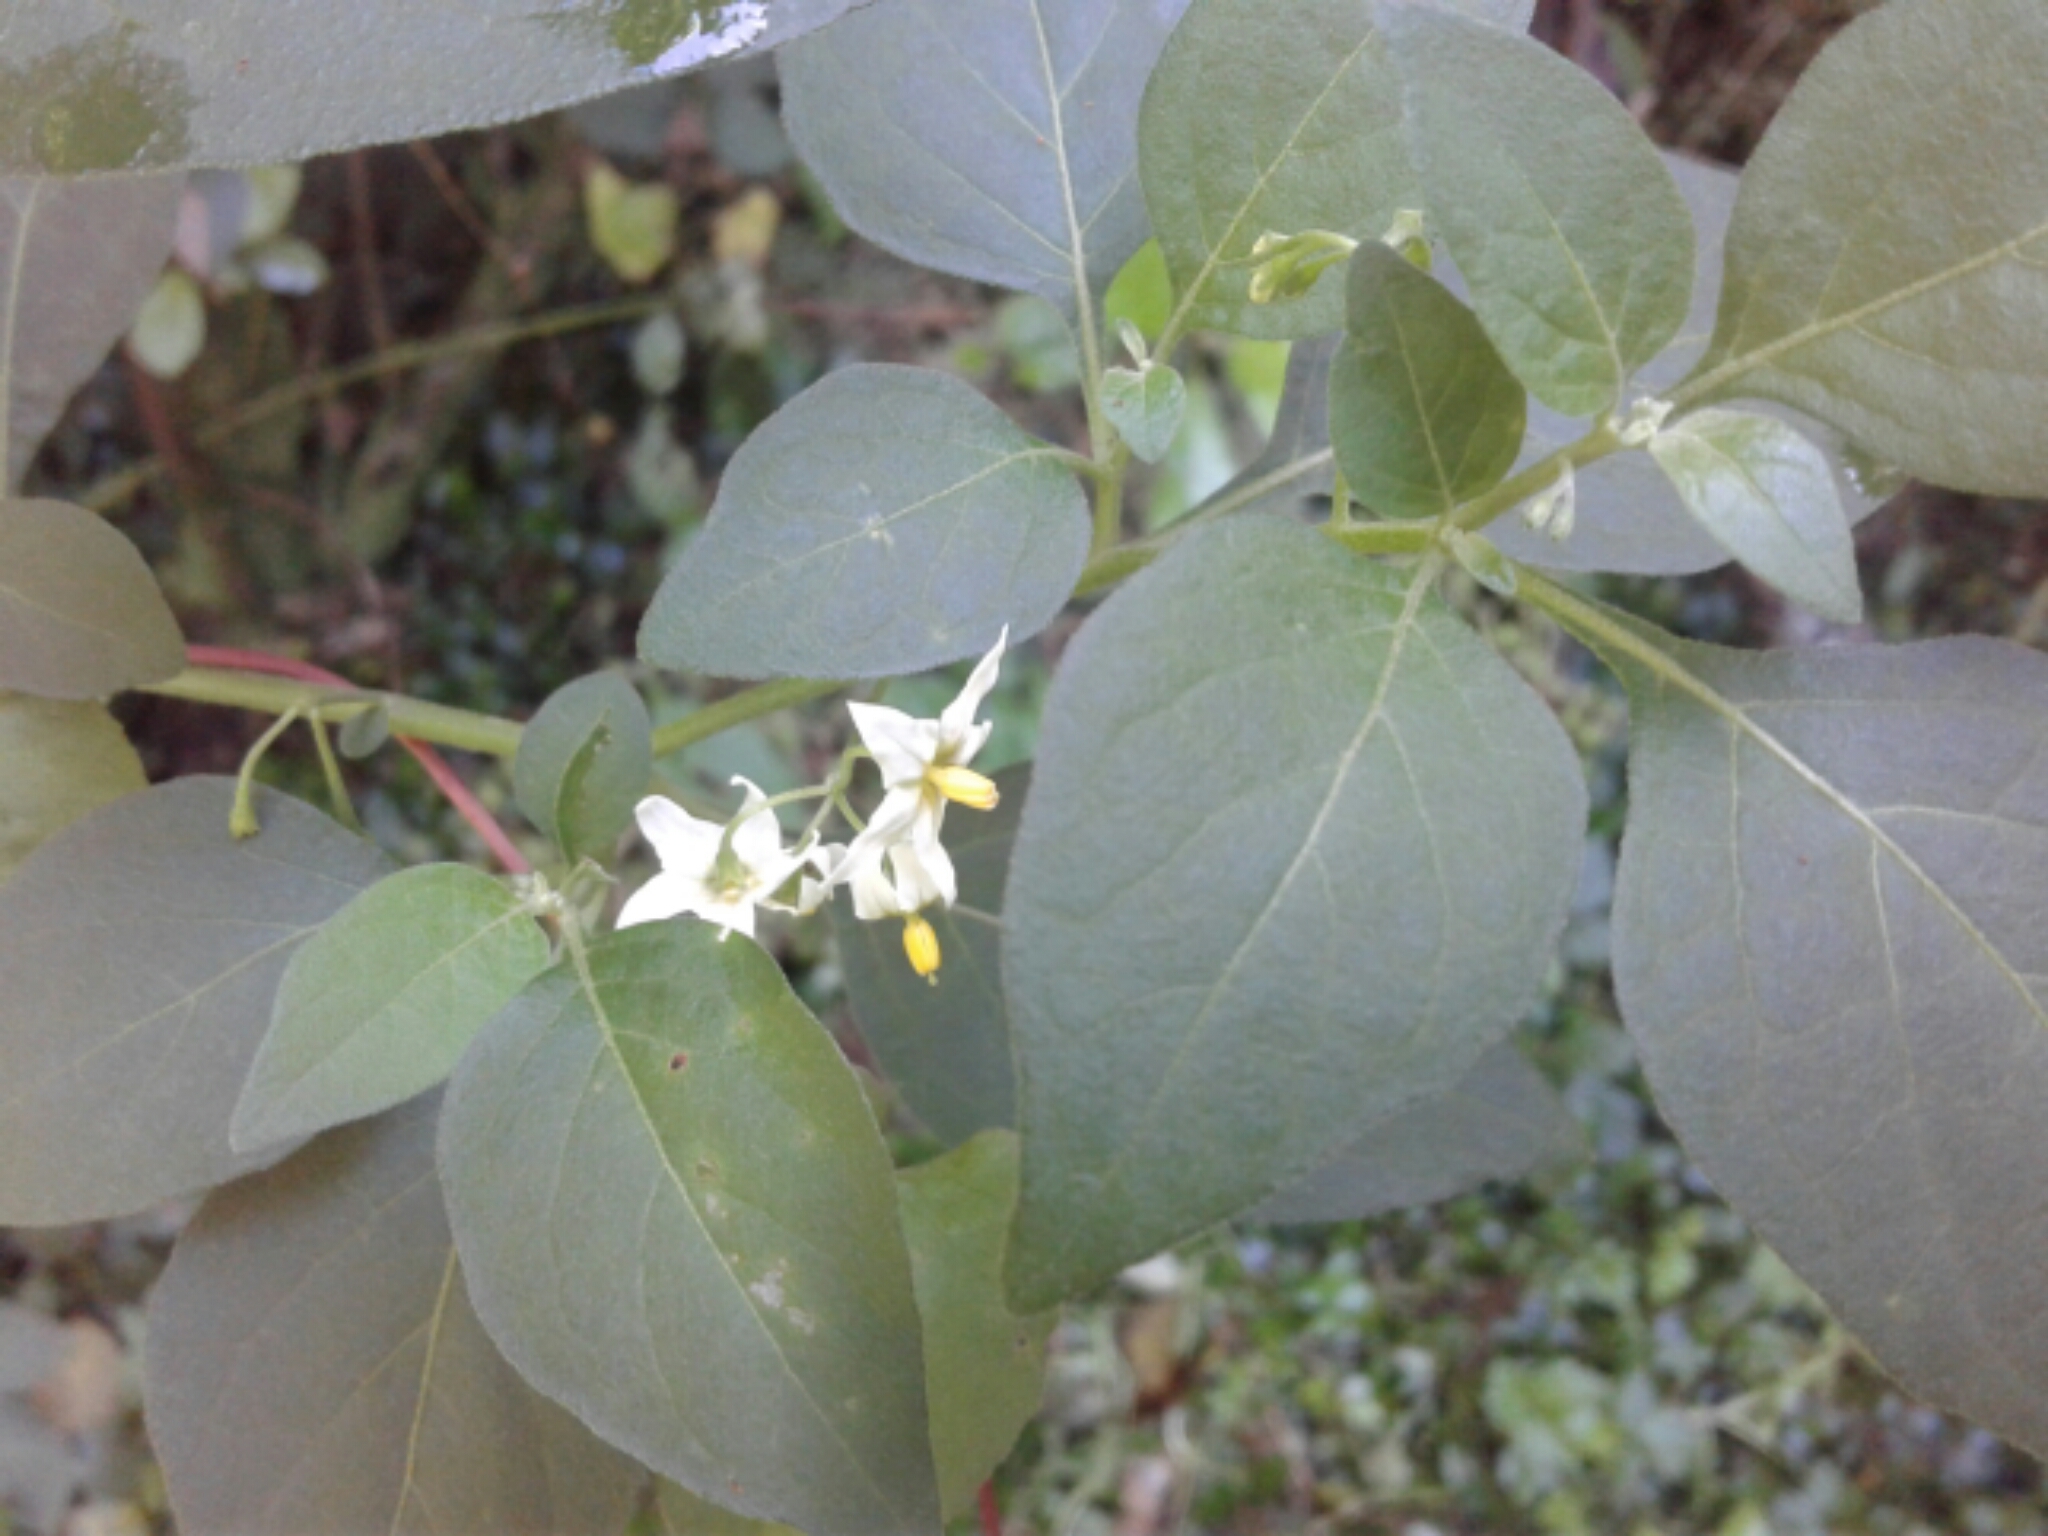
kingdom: Plantae
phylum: Tracheophyta
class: Magnoliopsida
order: Solanales
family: Solanaceae
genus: Solanum
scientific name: Solanum nigrum
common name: Black nightshade
